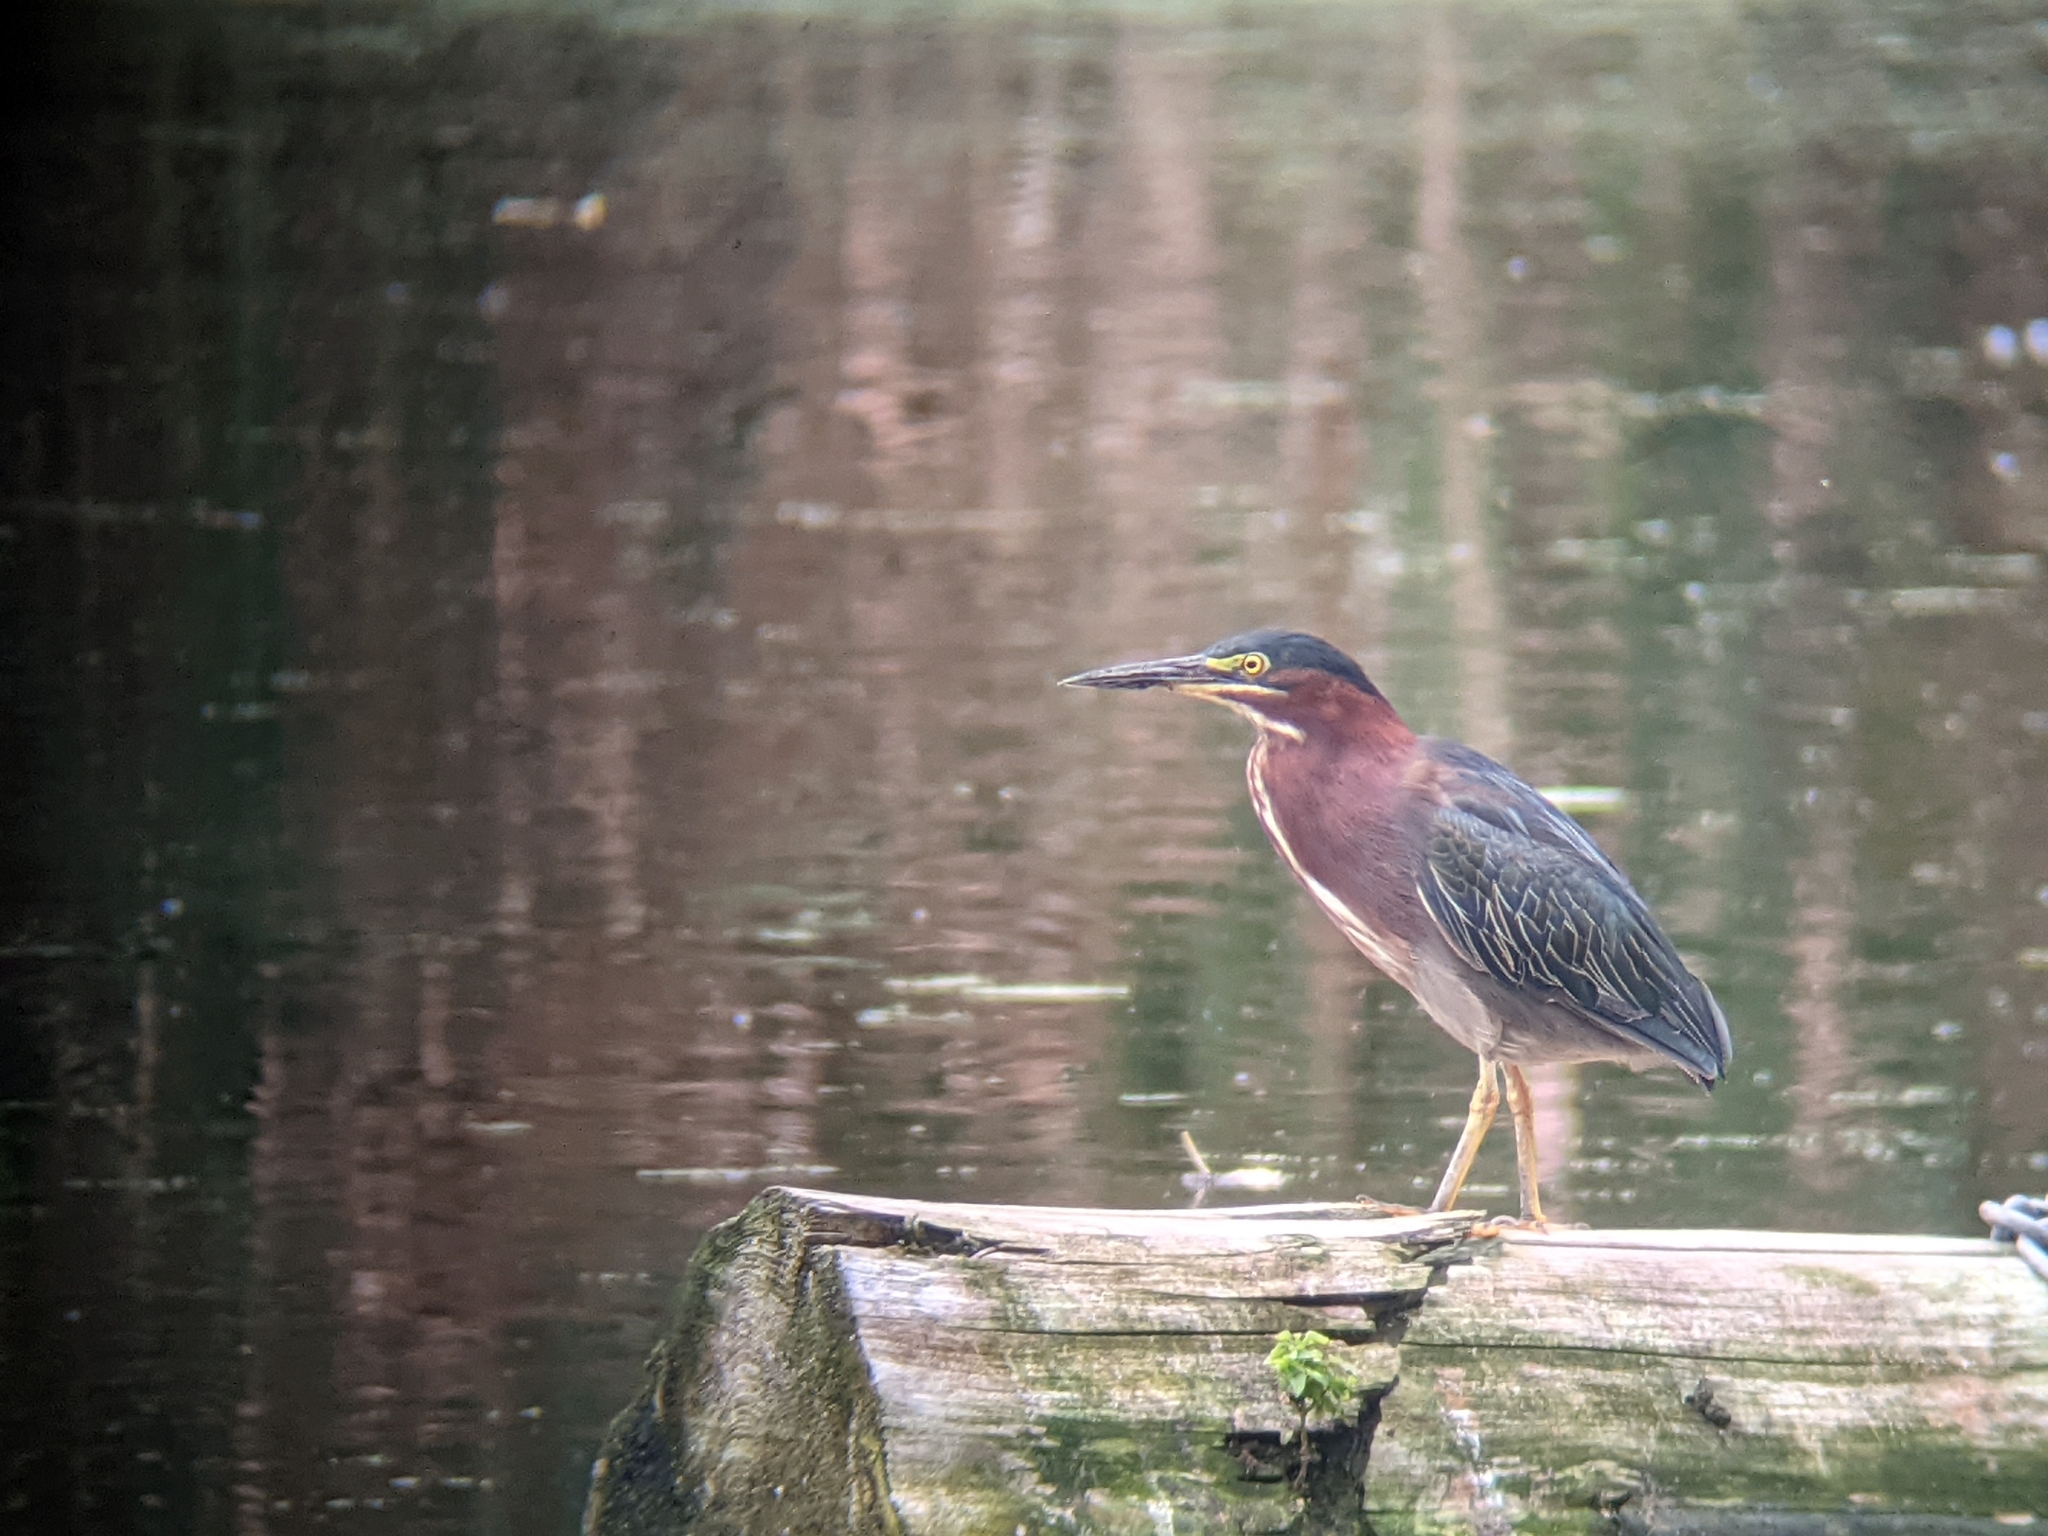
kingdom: Animalia
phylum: Chordata
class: Aves
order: Pelecaniformes
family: Ardeidae
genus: Butorides
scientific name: Butorides virescens
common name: Green heron
